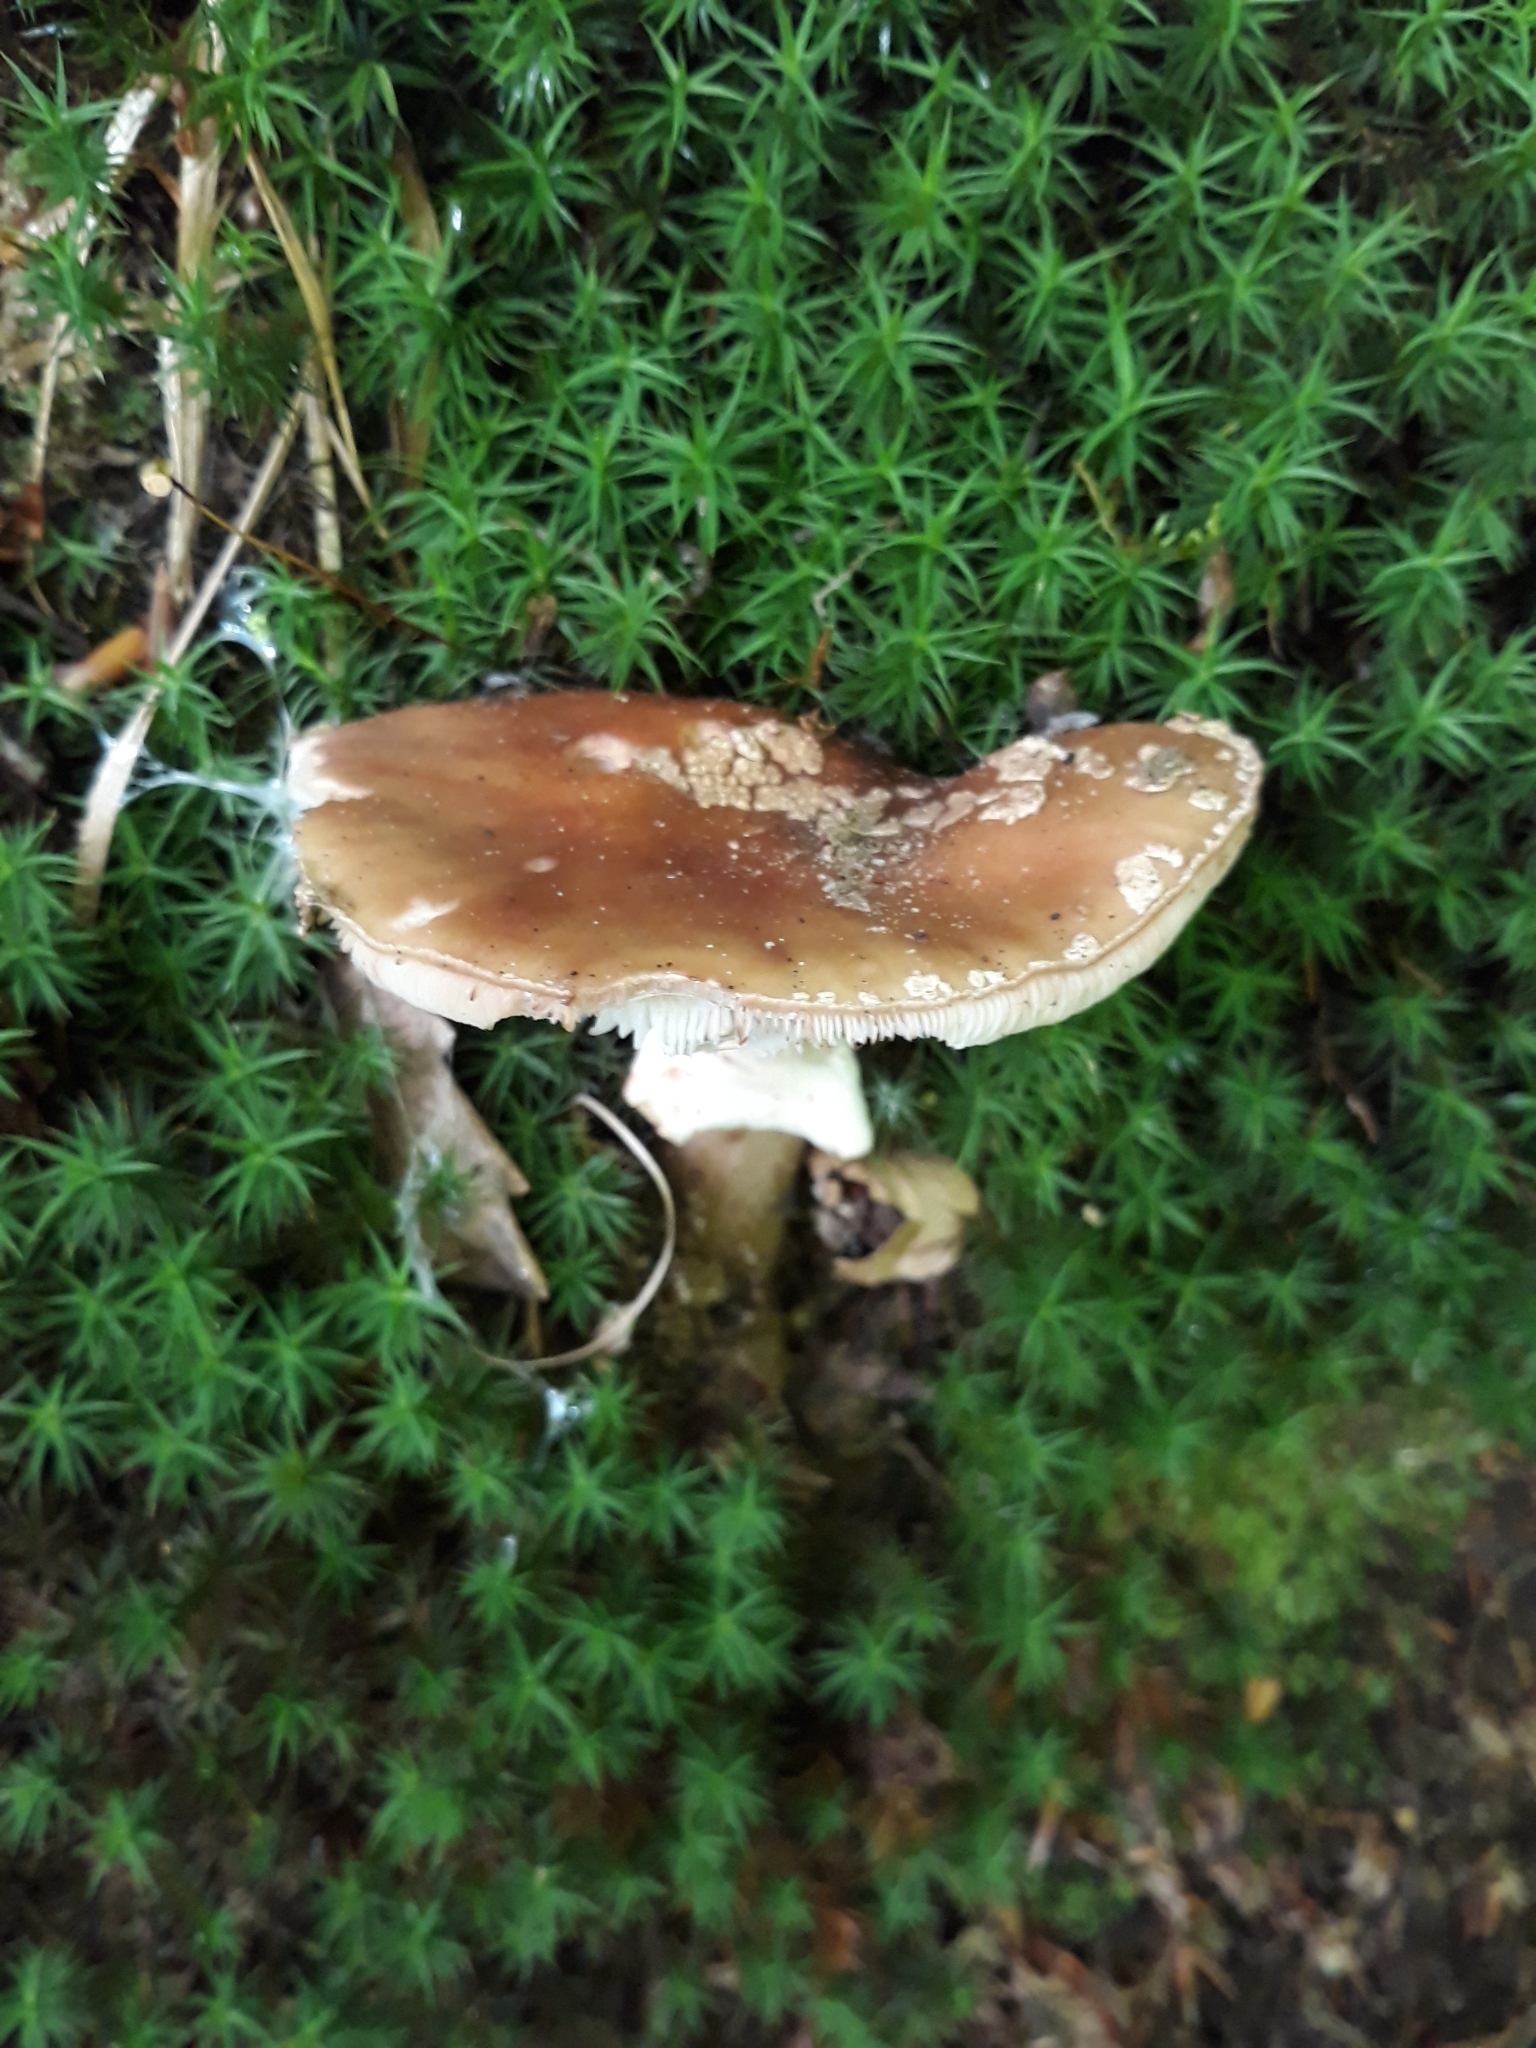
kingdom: Fungi
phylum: Basidiomycota
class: Agaricomycetes
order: Agaricales
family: Amanitaceae
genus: Amanita
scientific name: Amanita rubescens
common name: Blusher
